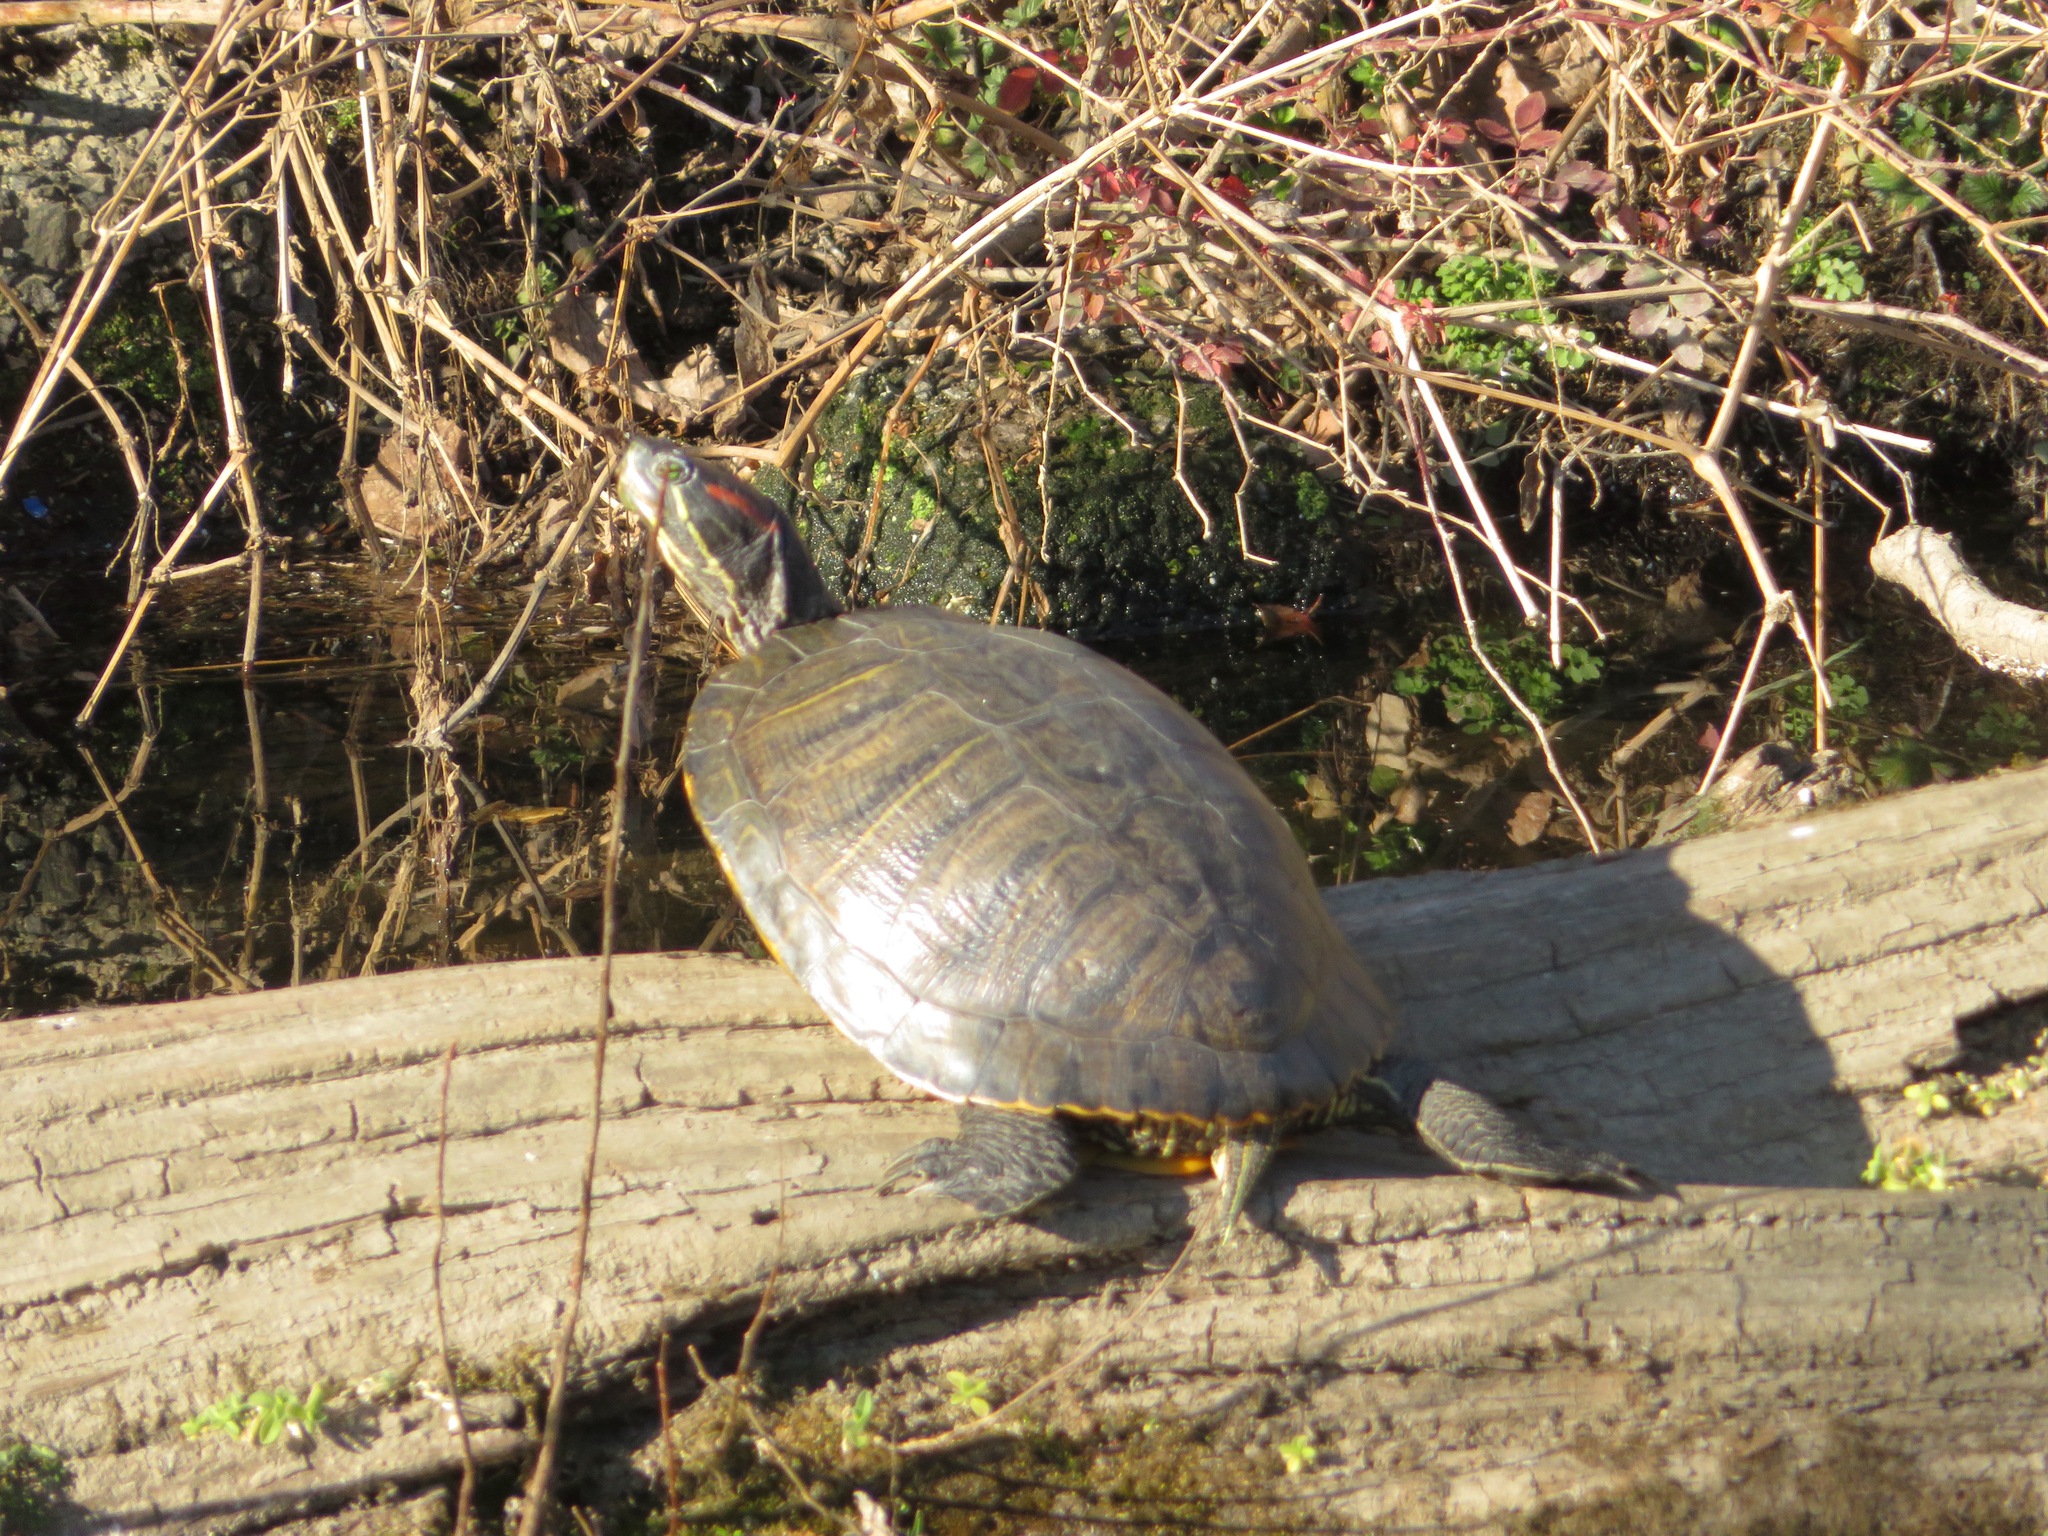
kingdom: Animalia
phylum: Chordata
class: Testudines
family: Emydidae
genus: Trachemys
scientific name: Trachemys scripta
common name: Slider
